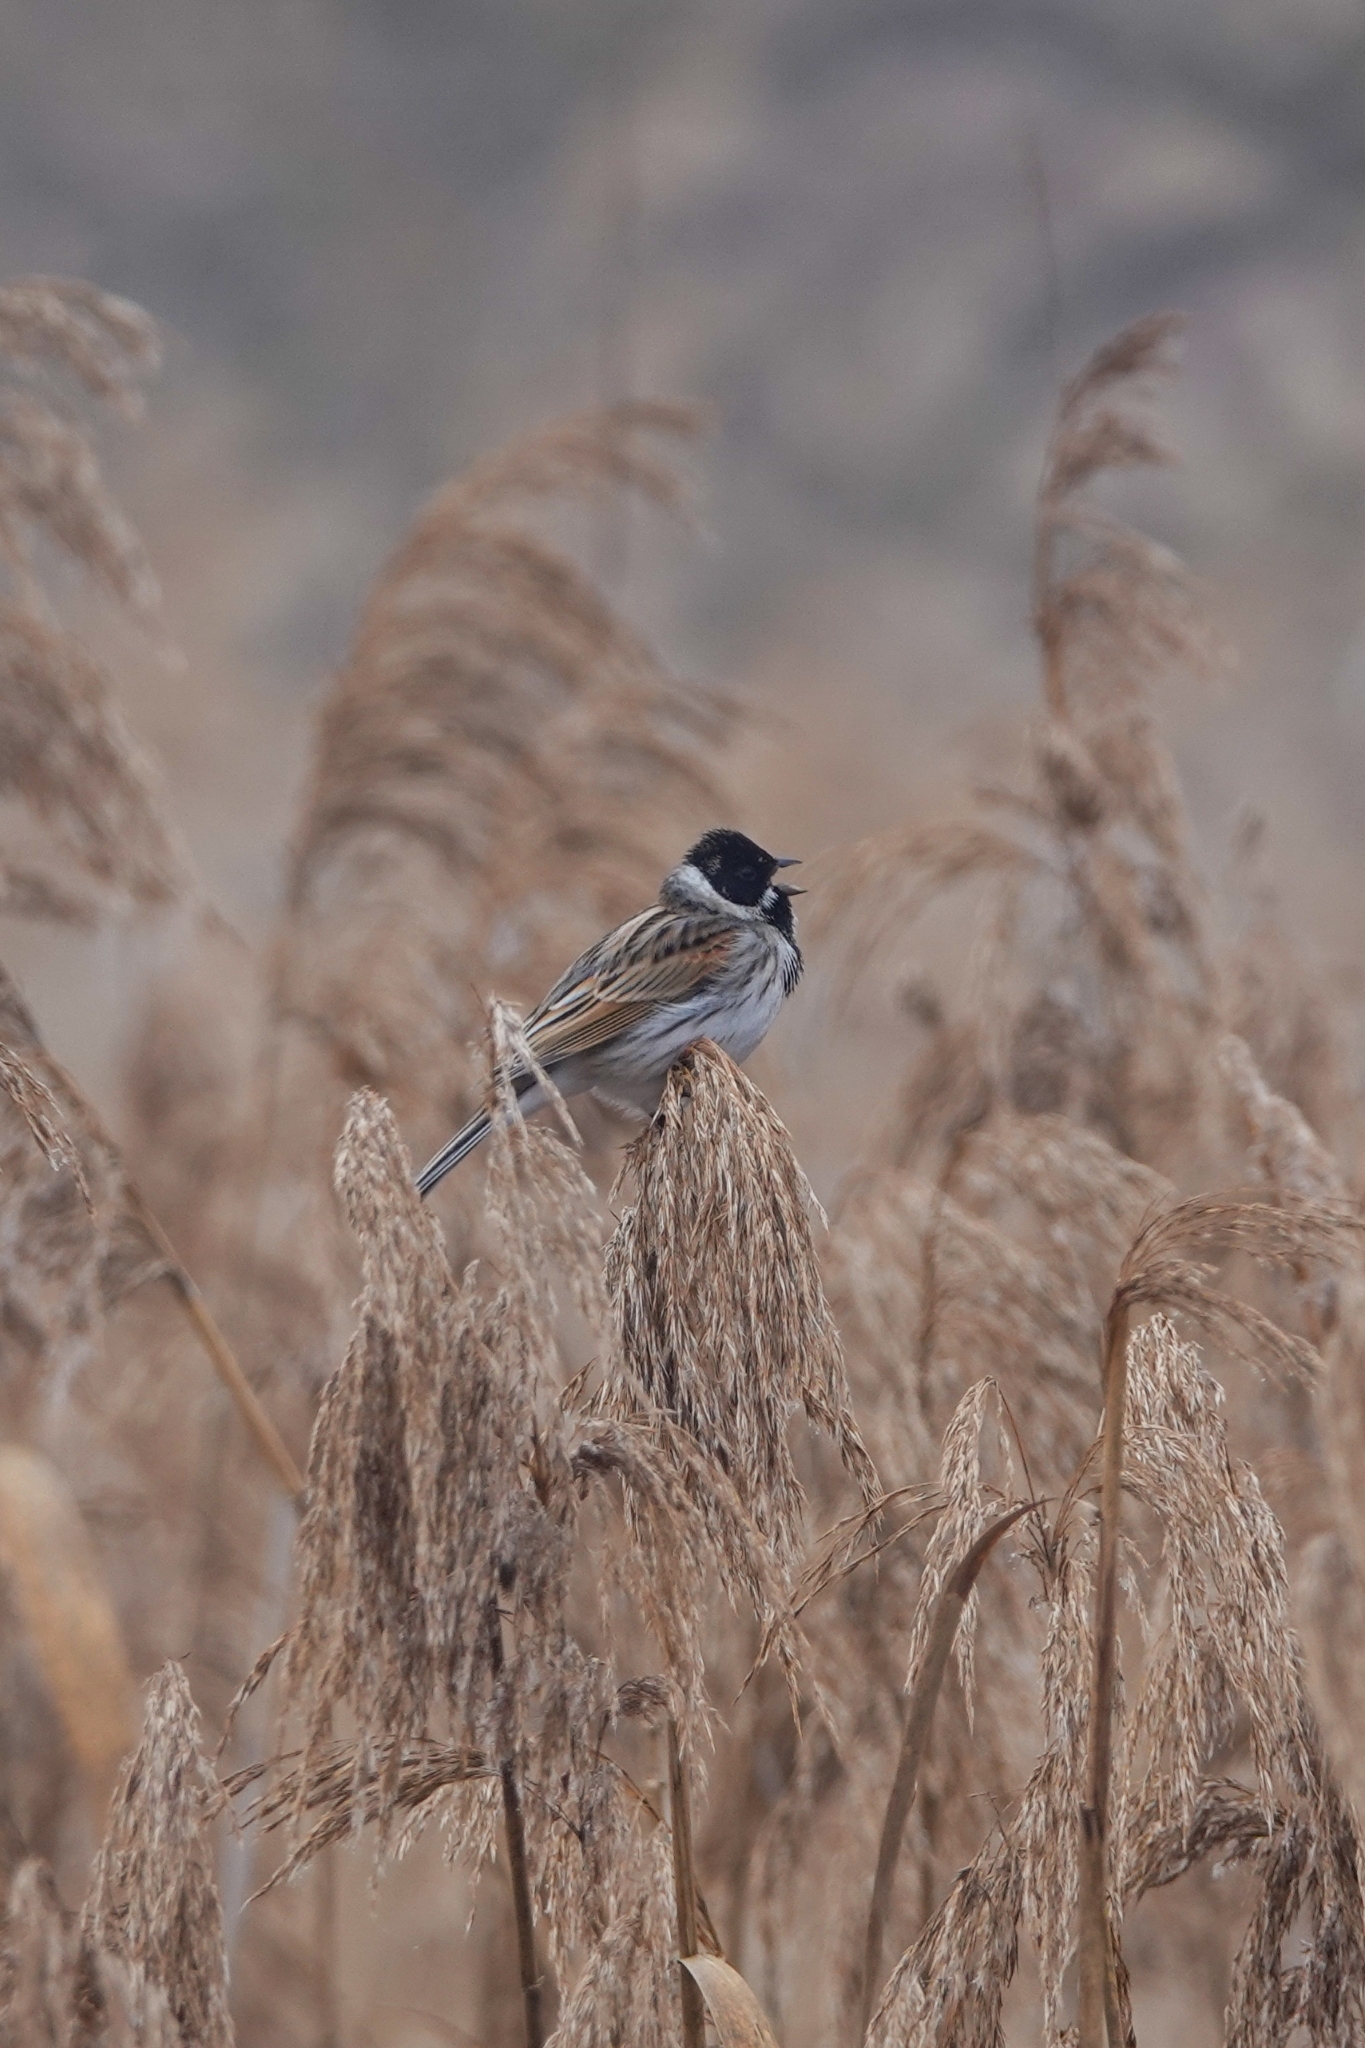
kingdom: Animalia
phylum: Chordata
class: Aves
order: Passeriformes
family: Emberizidae
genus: Emberiza
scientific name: Emberiza schoeniclus
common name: Reed bunting
